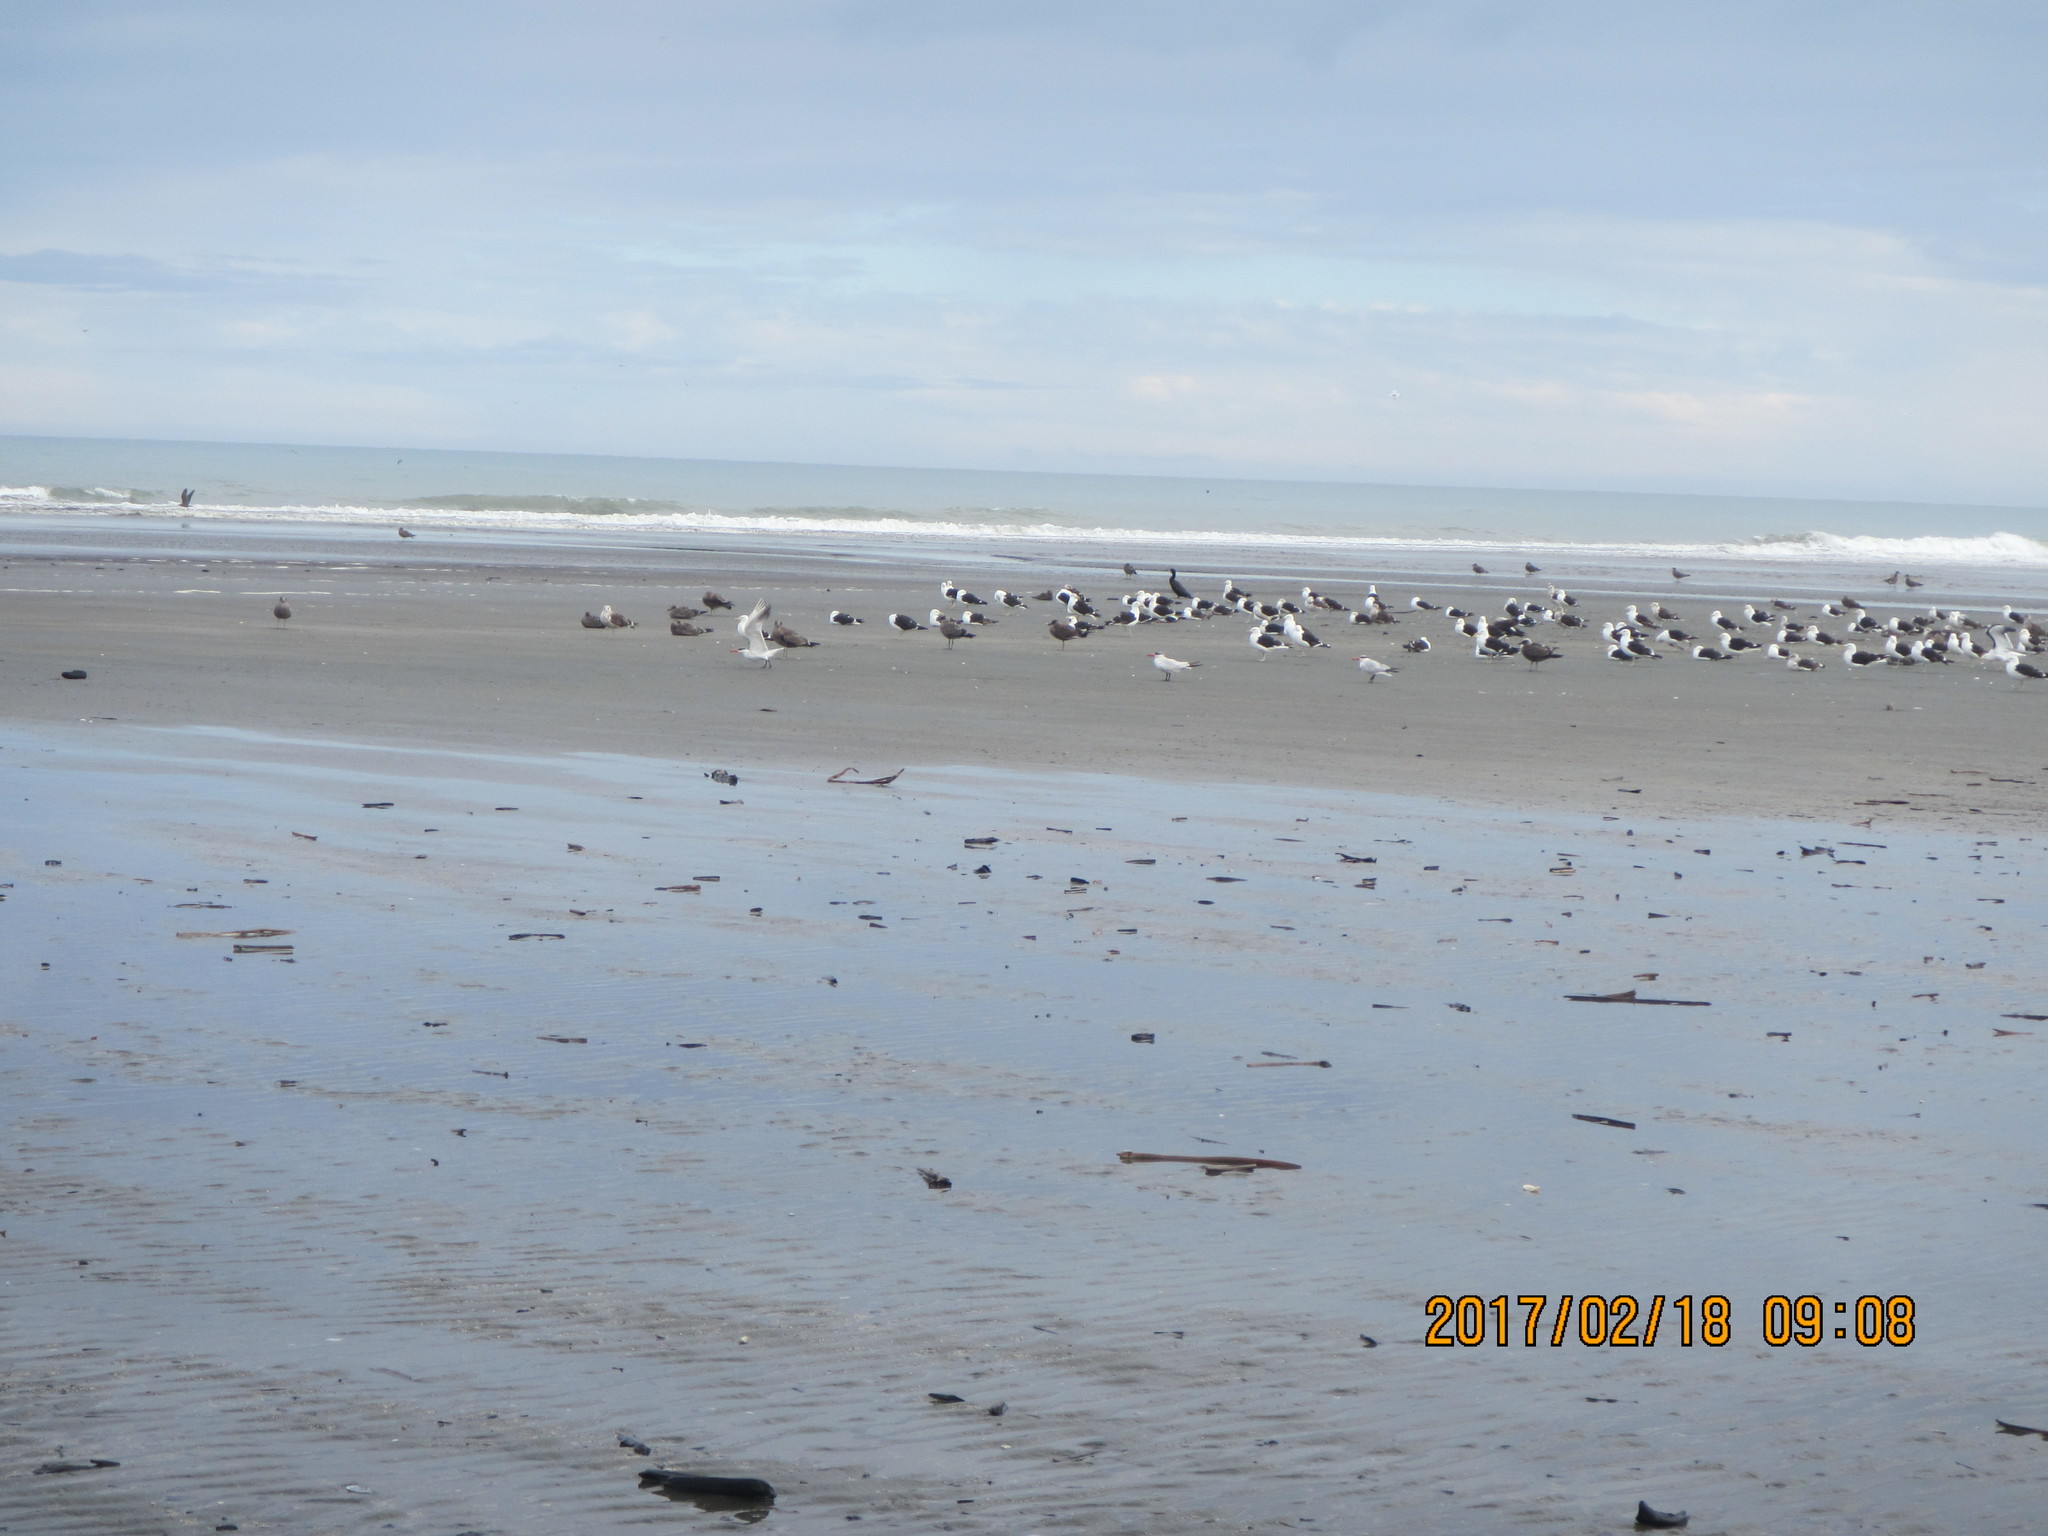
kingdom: Animalia
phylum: Chordata
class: Aves
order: Charadriiformes
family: Laridae
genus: Hydroprogne
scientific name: Hydroprogne caspia
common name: Caspian tern
